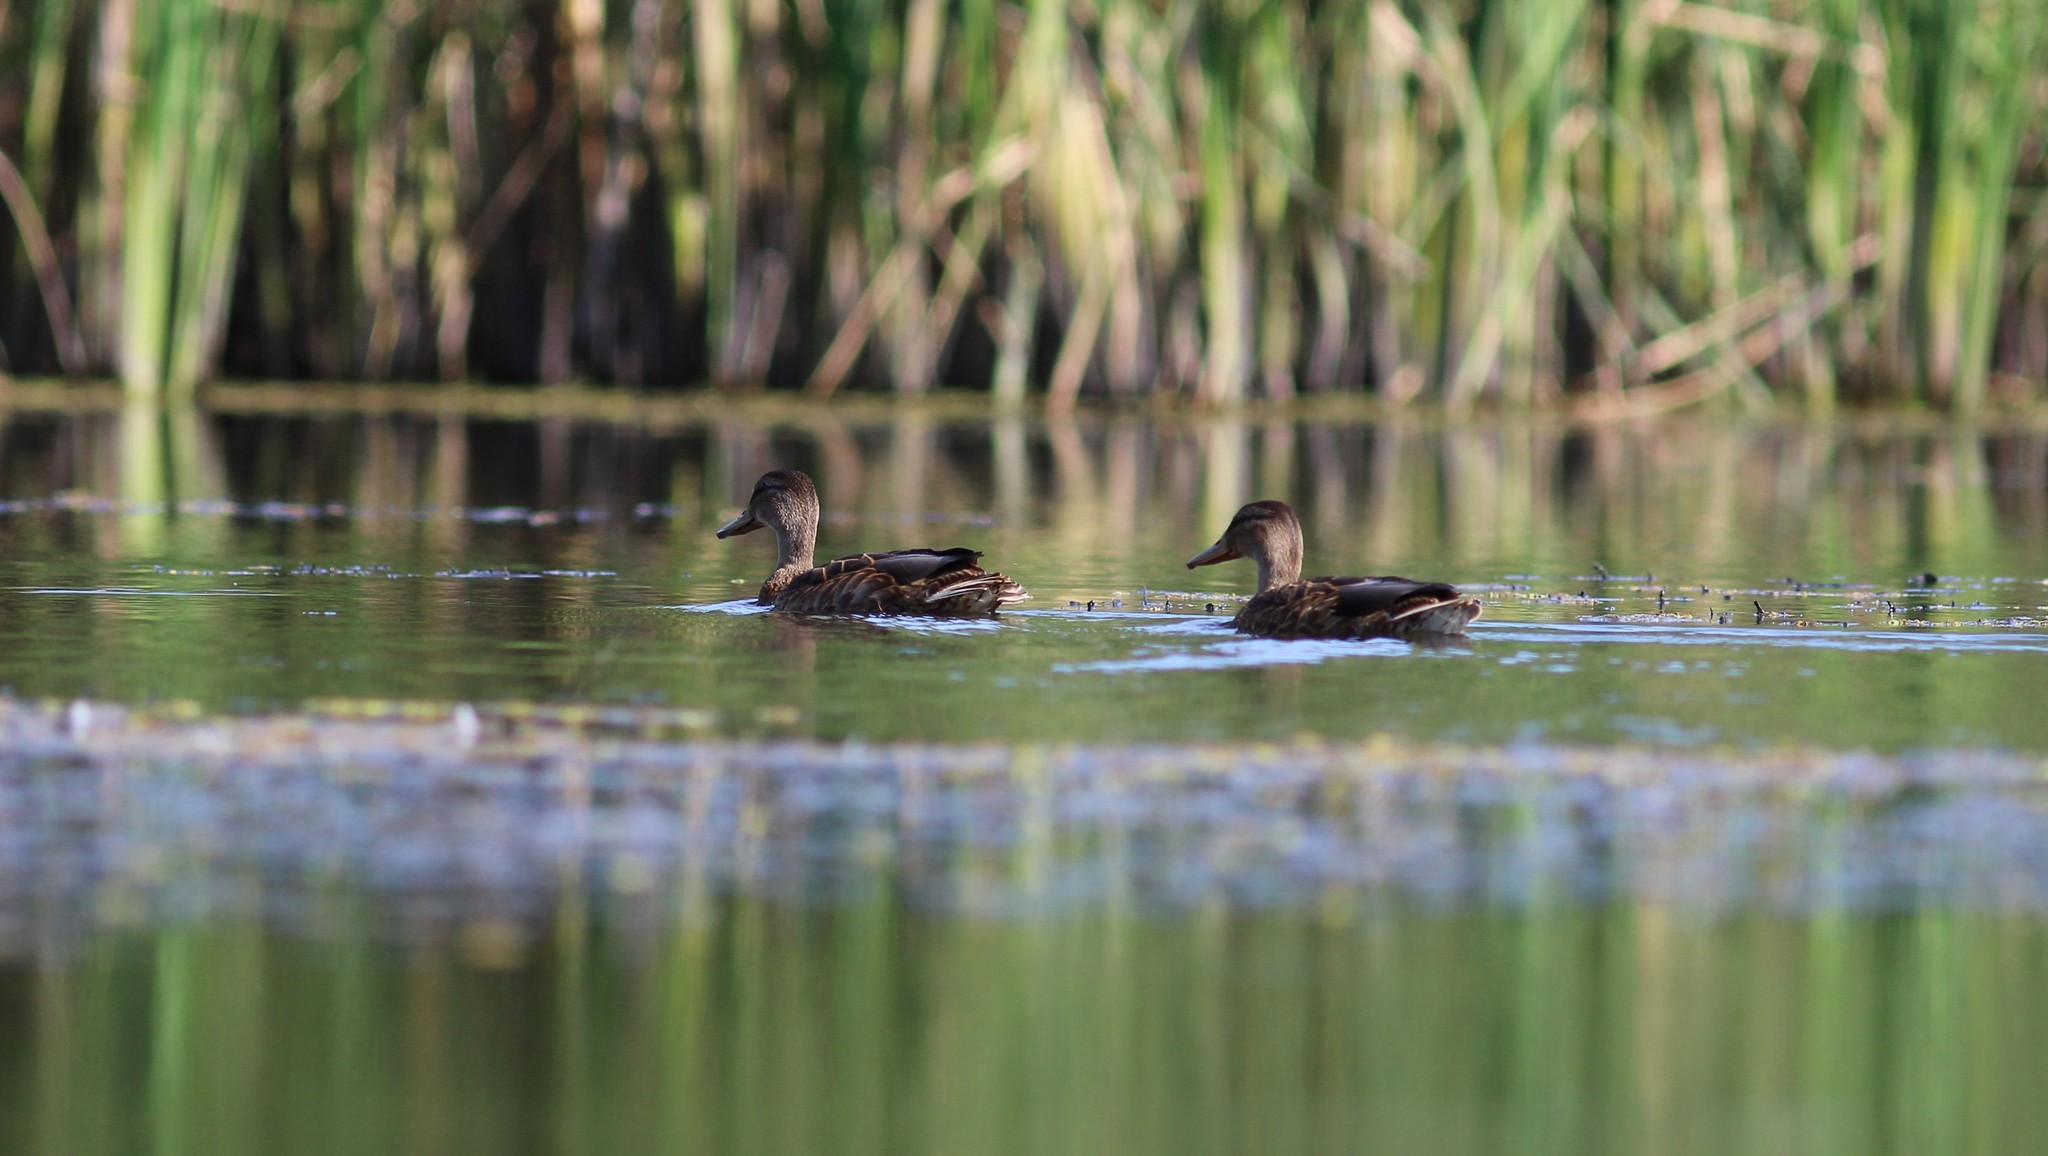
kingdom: Animalia
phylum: Chordata
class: Aves
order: Anseriformes
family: Anatidae
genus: Anas
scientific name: Anas platyrhynchos
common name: Mallard
